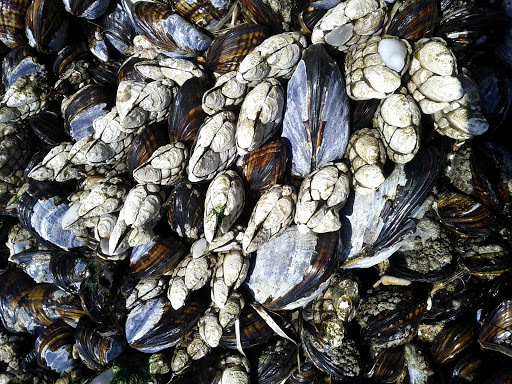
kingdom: Animalia
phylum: Arthropoda
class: Maxillopoda
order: Pedunculata
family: Pollicipedidae
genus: Pollicipes
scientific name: Pollicipes polymerus
